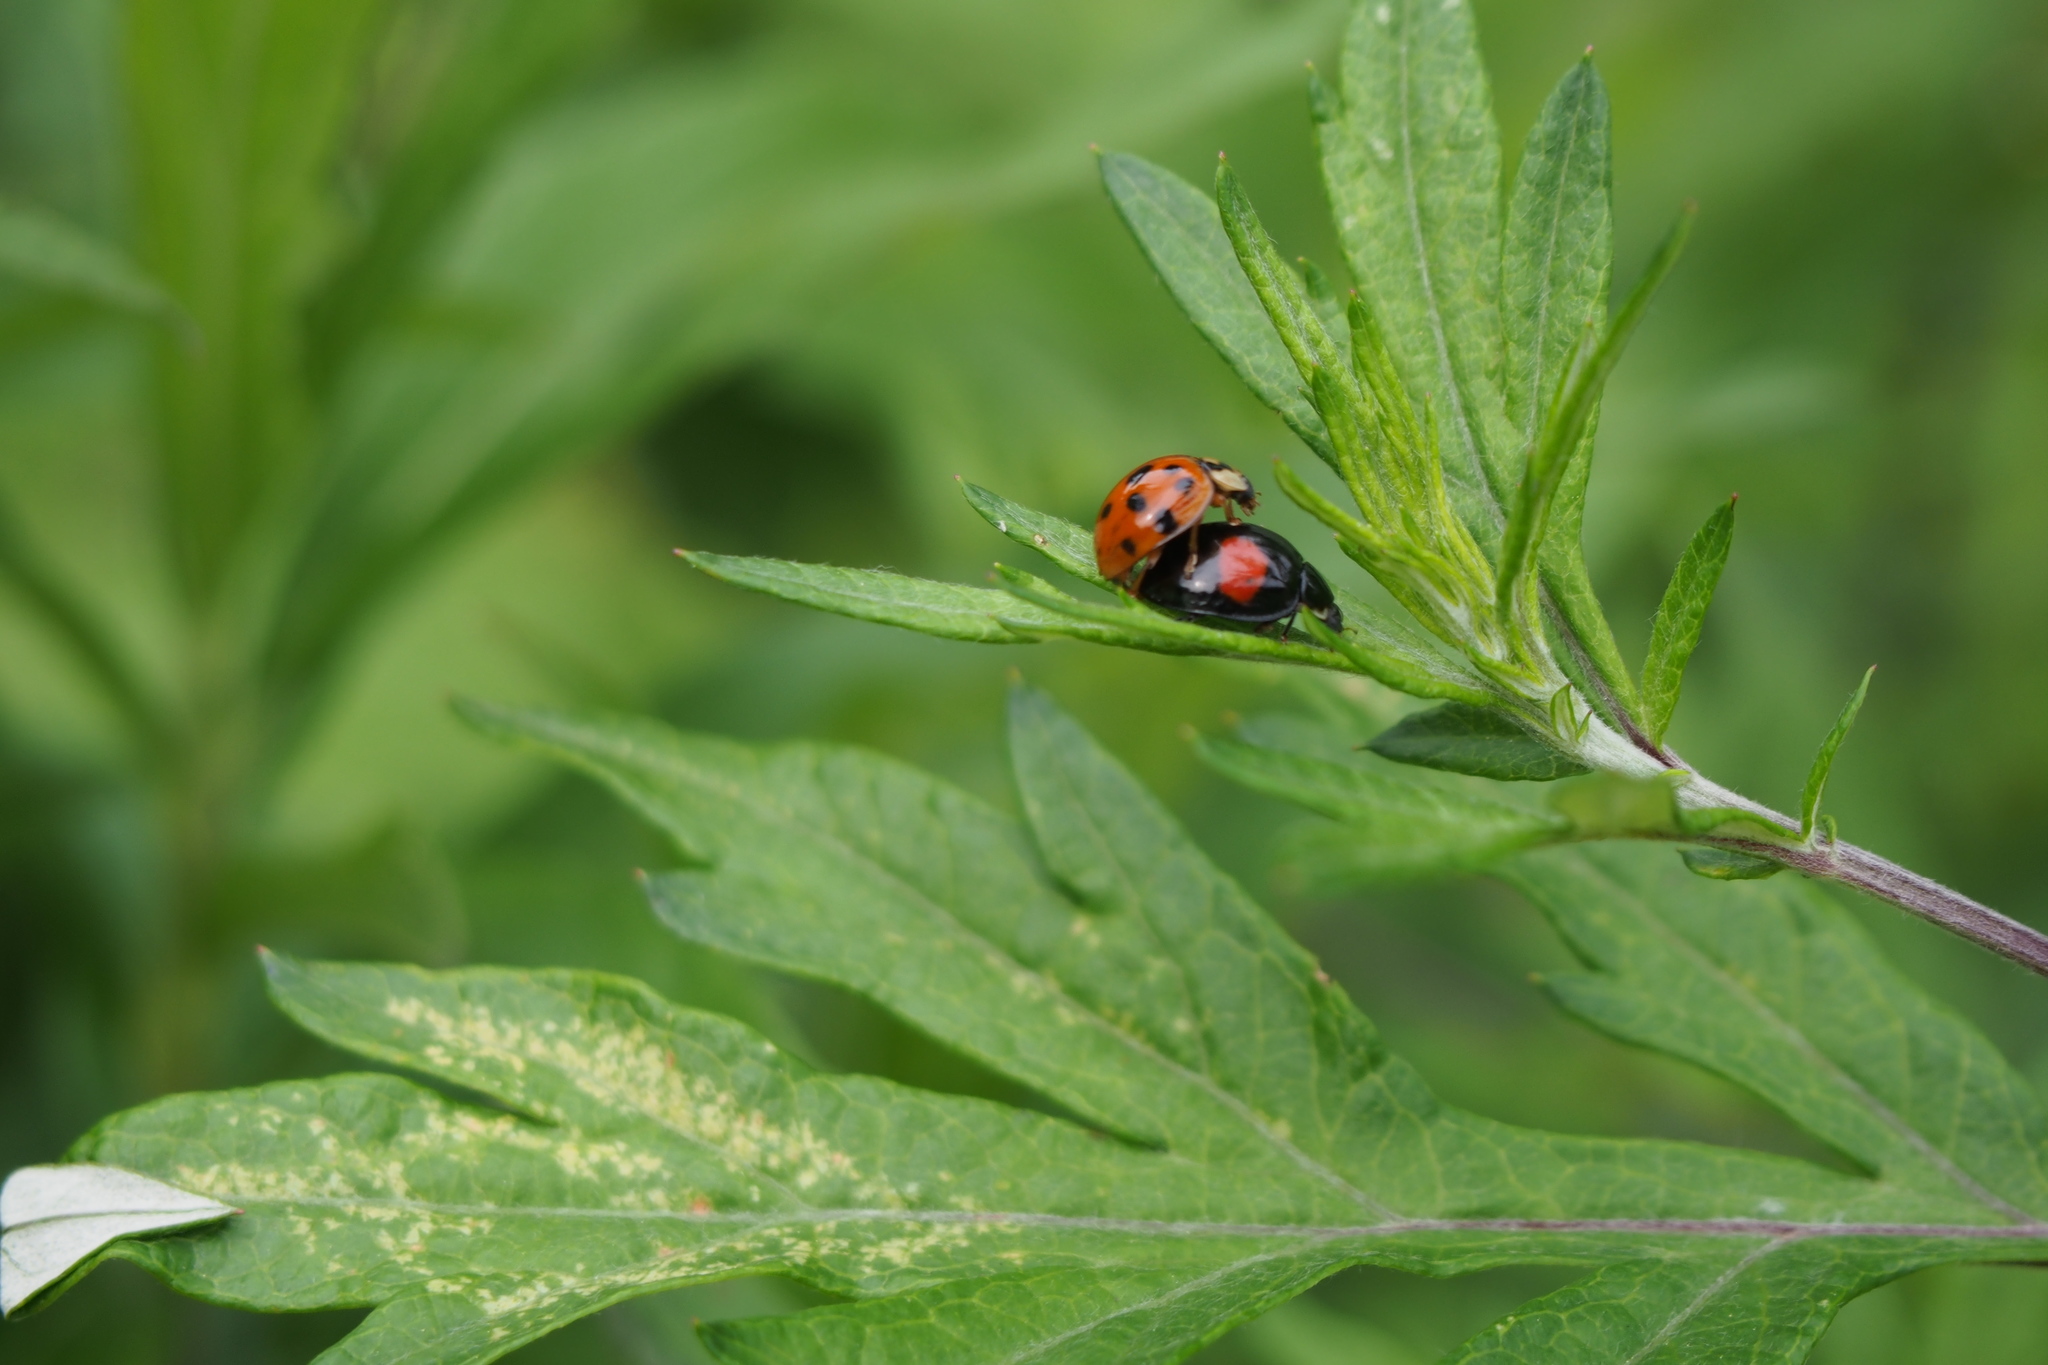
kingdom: Animalia
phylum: Arthropoda
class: Insecta
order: Coleoptera
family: Coccinellidae
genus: Harmonia
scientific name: Harmonia axyridis
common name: Harlequin ladybird
